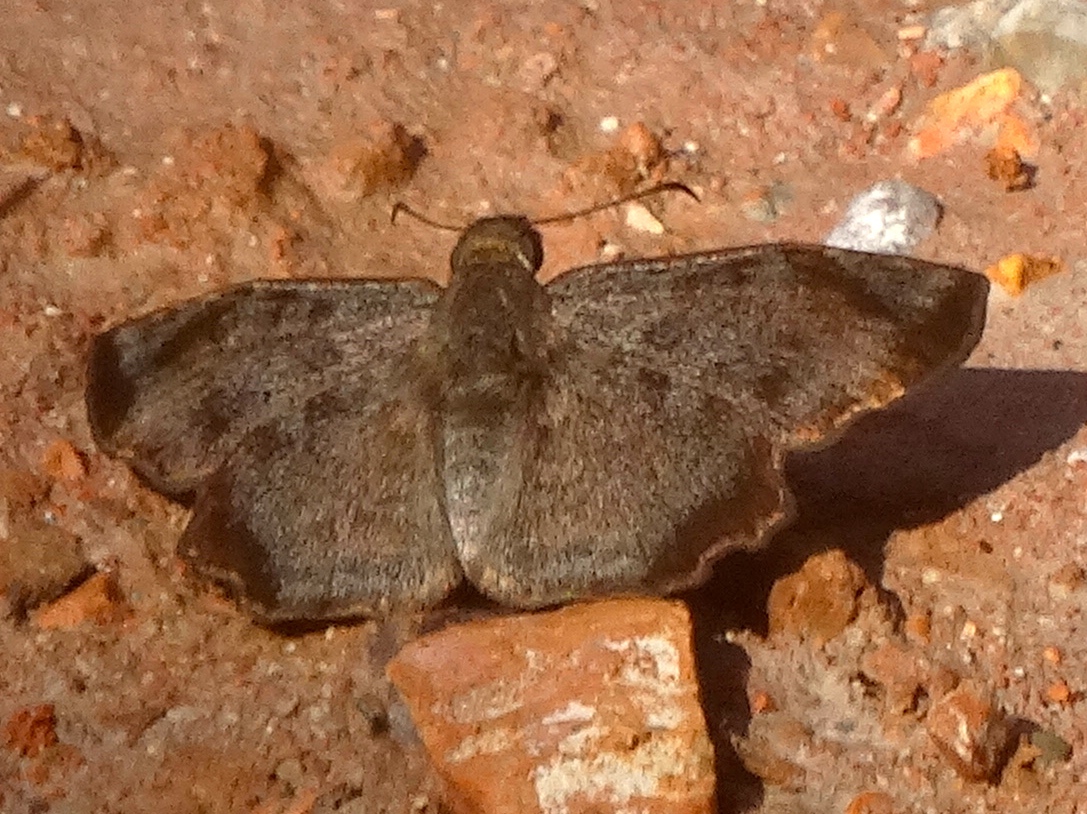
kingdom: Animalia
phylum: Arthropoda
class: Insecta
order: Lepidoptera
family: Hesperiidae
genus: Antigonus
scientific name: Antigonus erosus
